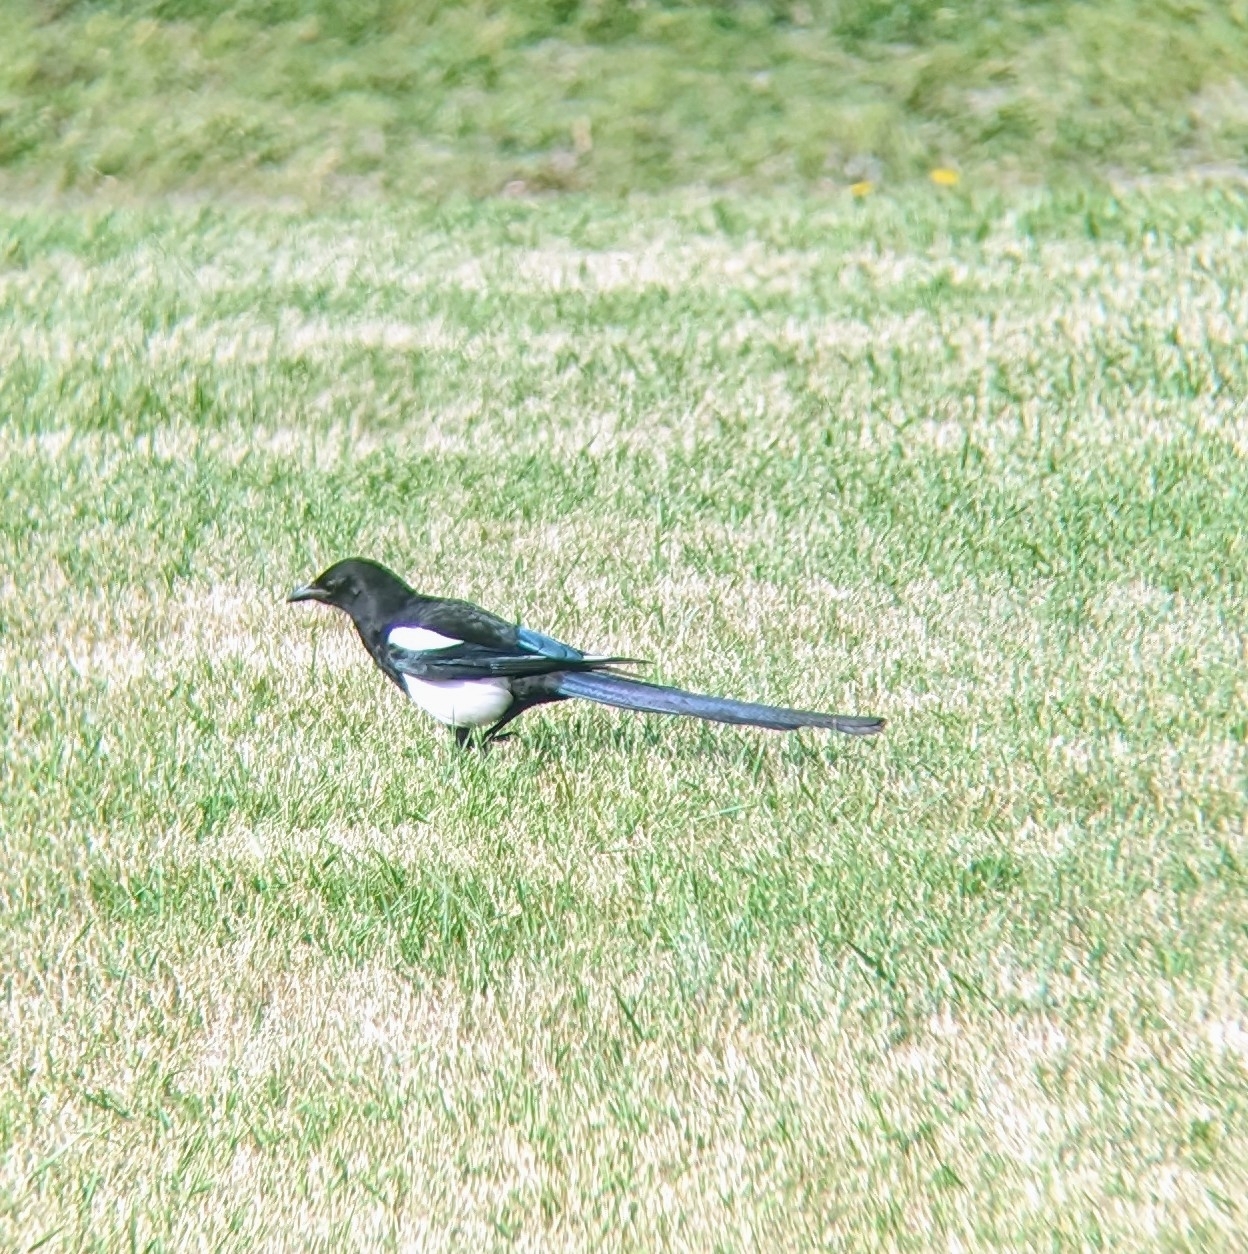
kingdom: Animalia
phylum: Chordata
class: Aves
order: Passeriformes
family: Corvidae
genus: Pica
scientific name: Pica hudsonia
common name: Black-billed magpie
